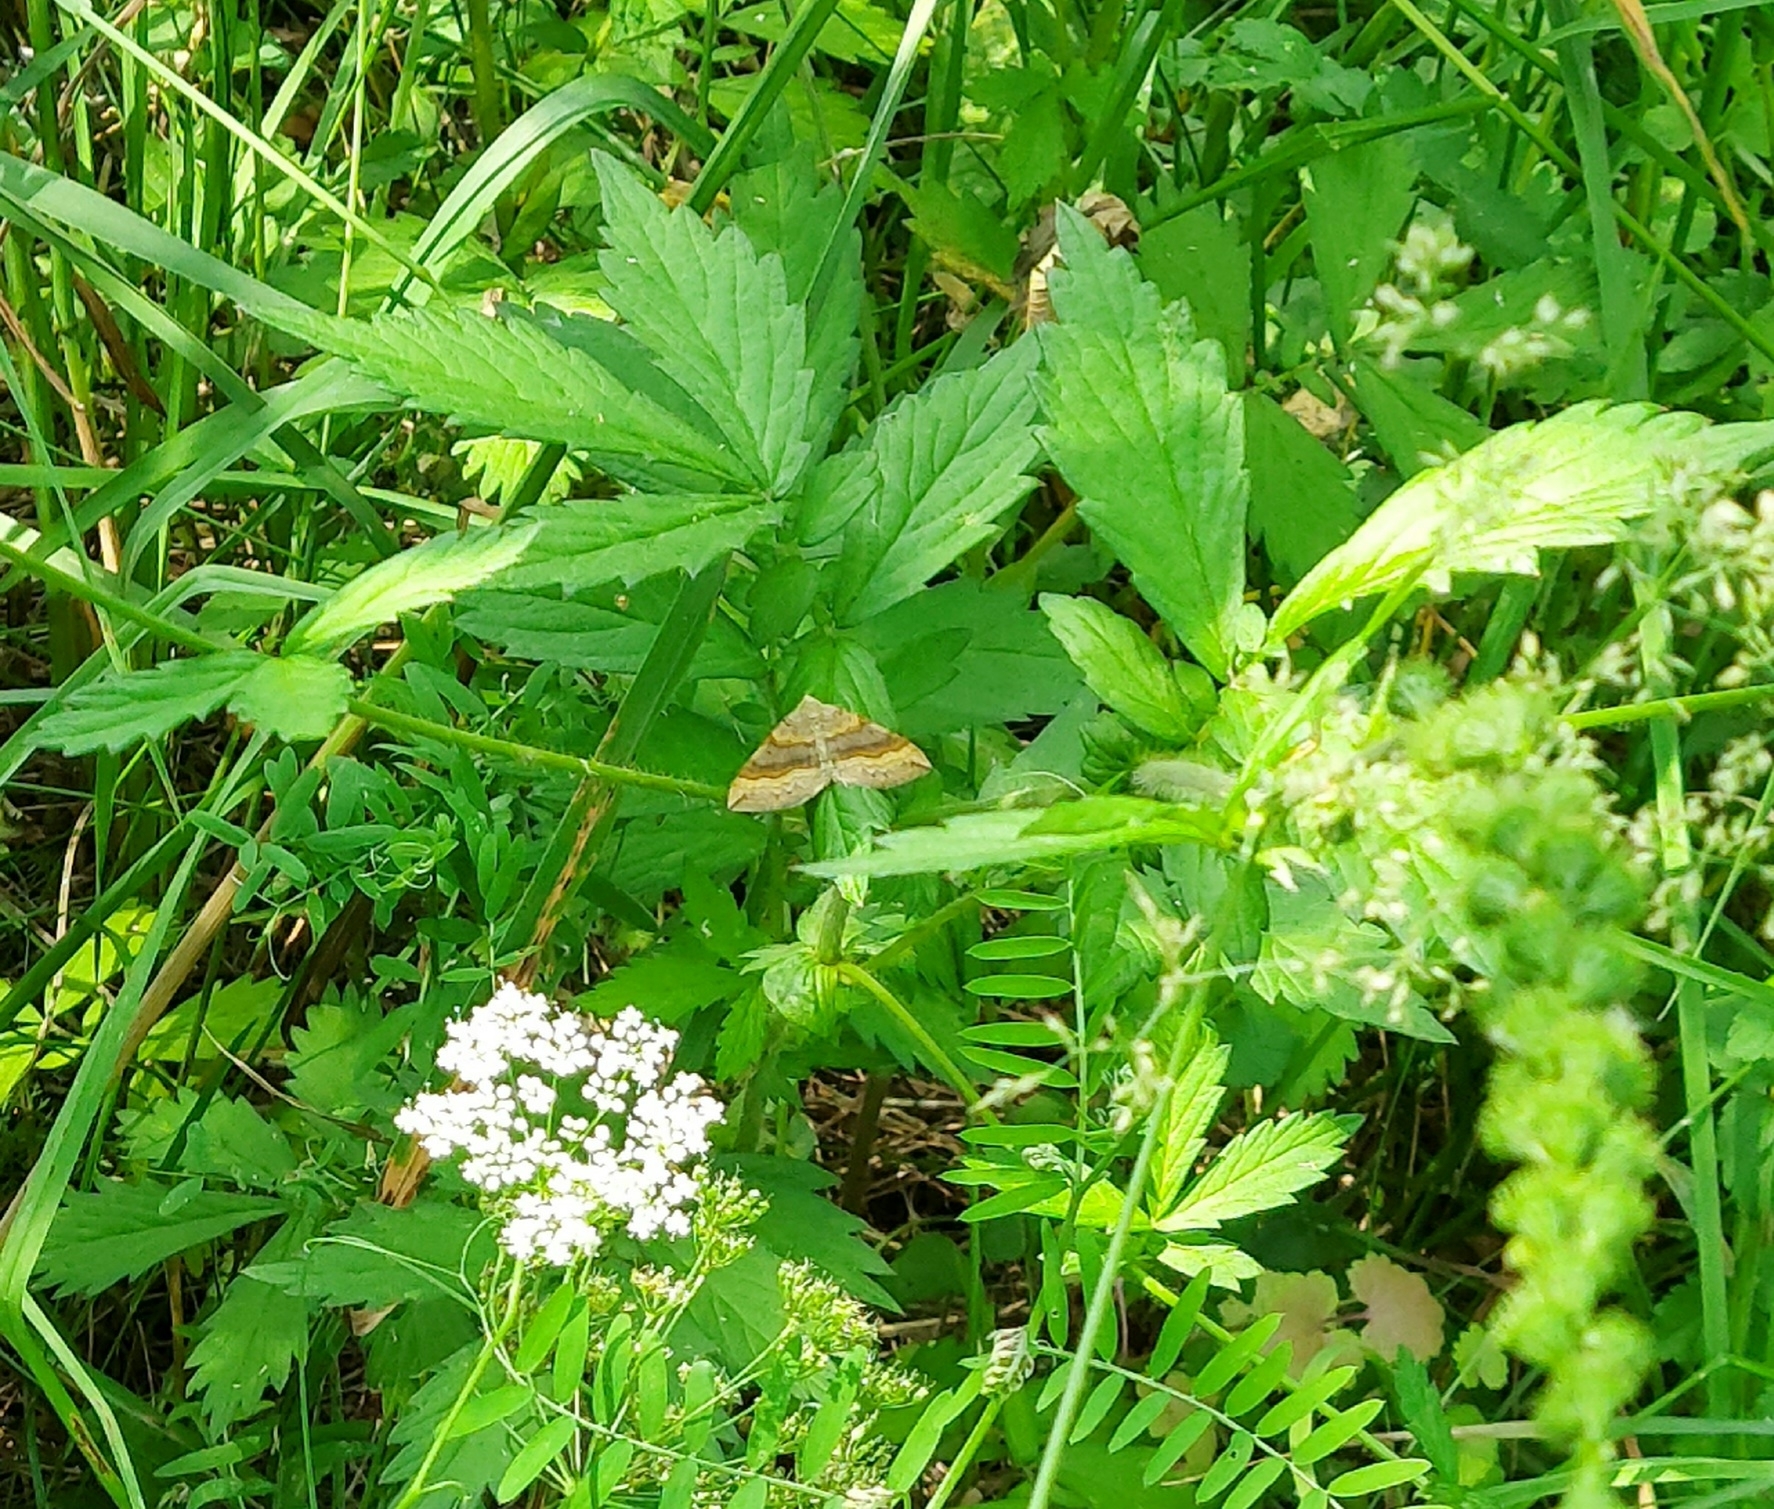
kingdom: Animalia
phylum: Arthropoda
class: Insecta
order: Lepidoptera
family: Geometridae
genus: Scotopteryx
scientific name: Scotopteryx chenopodiata
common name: Shaded broad-bar
